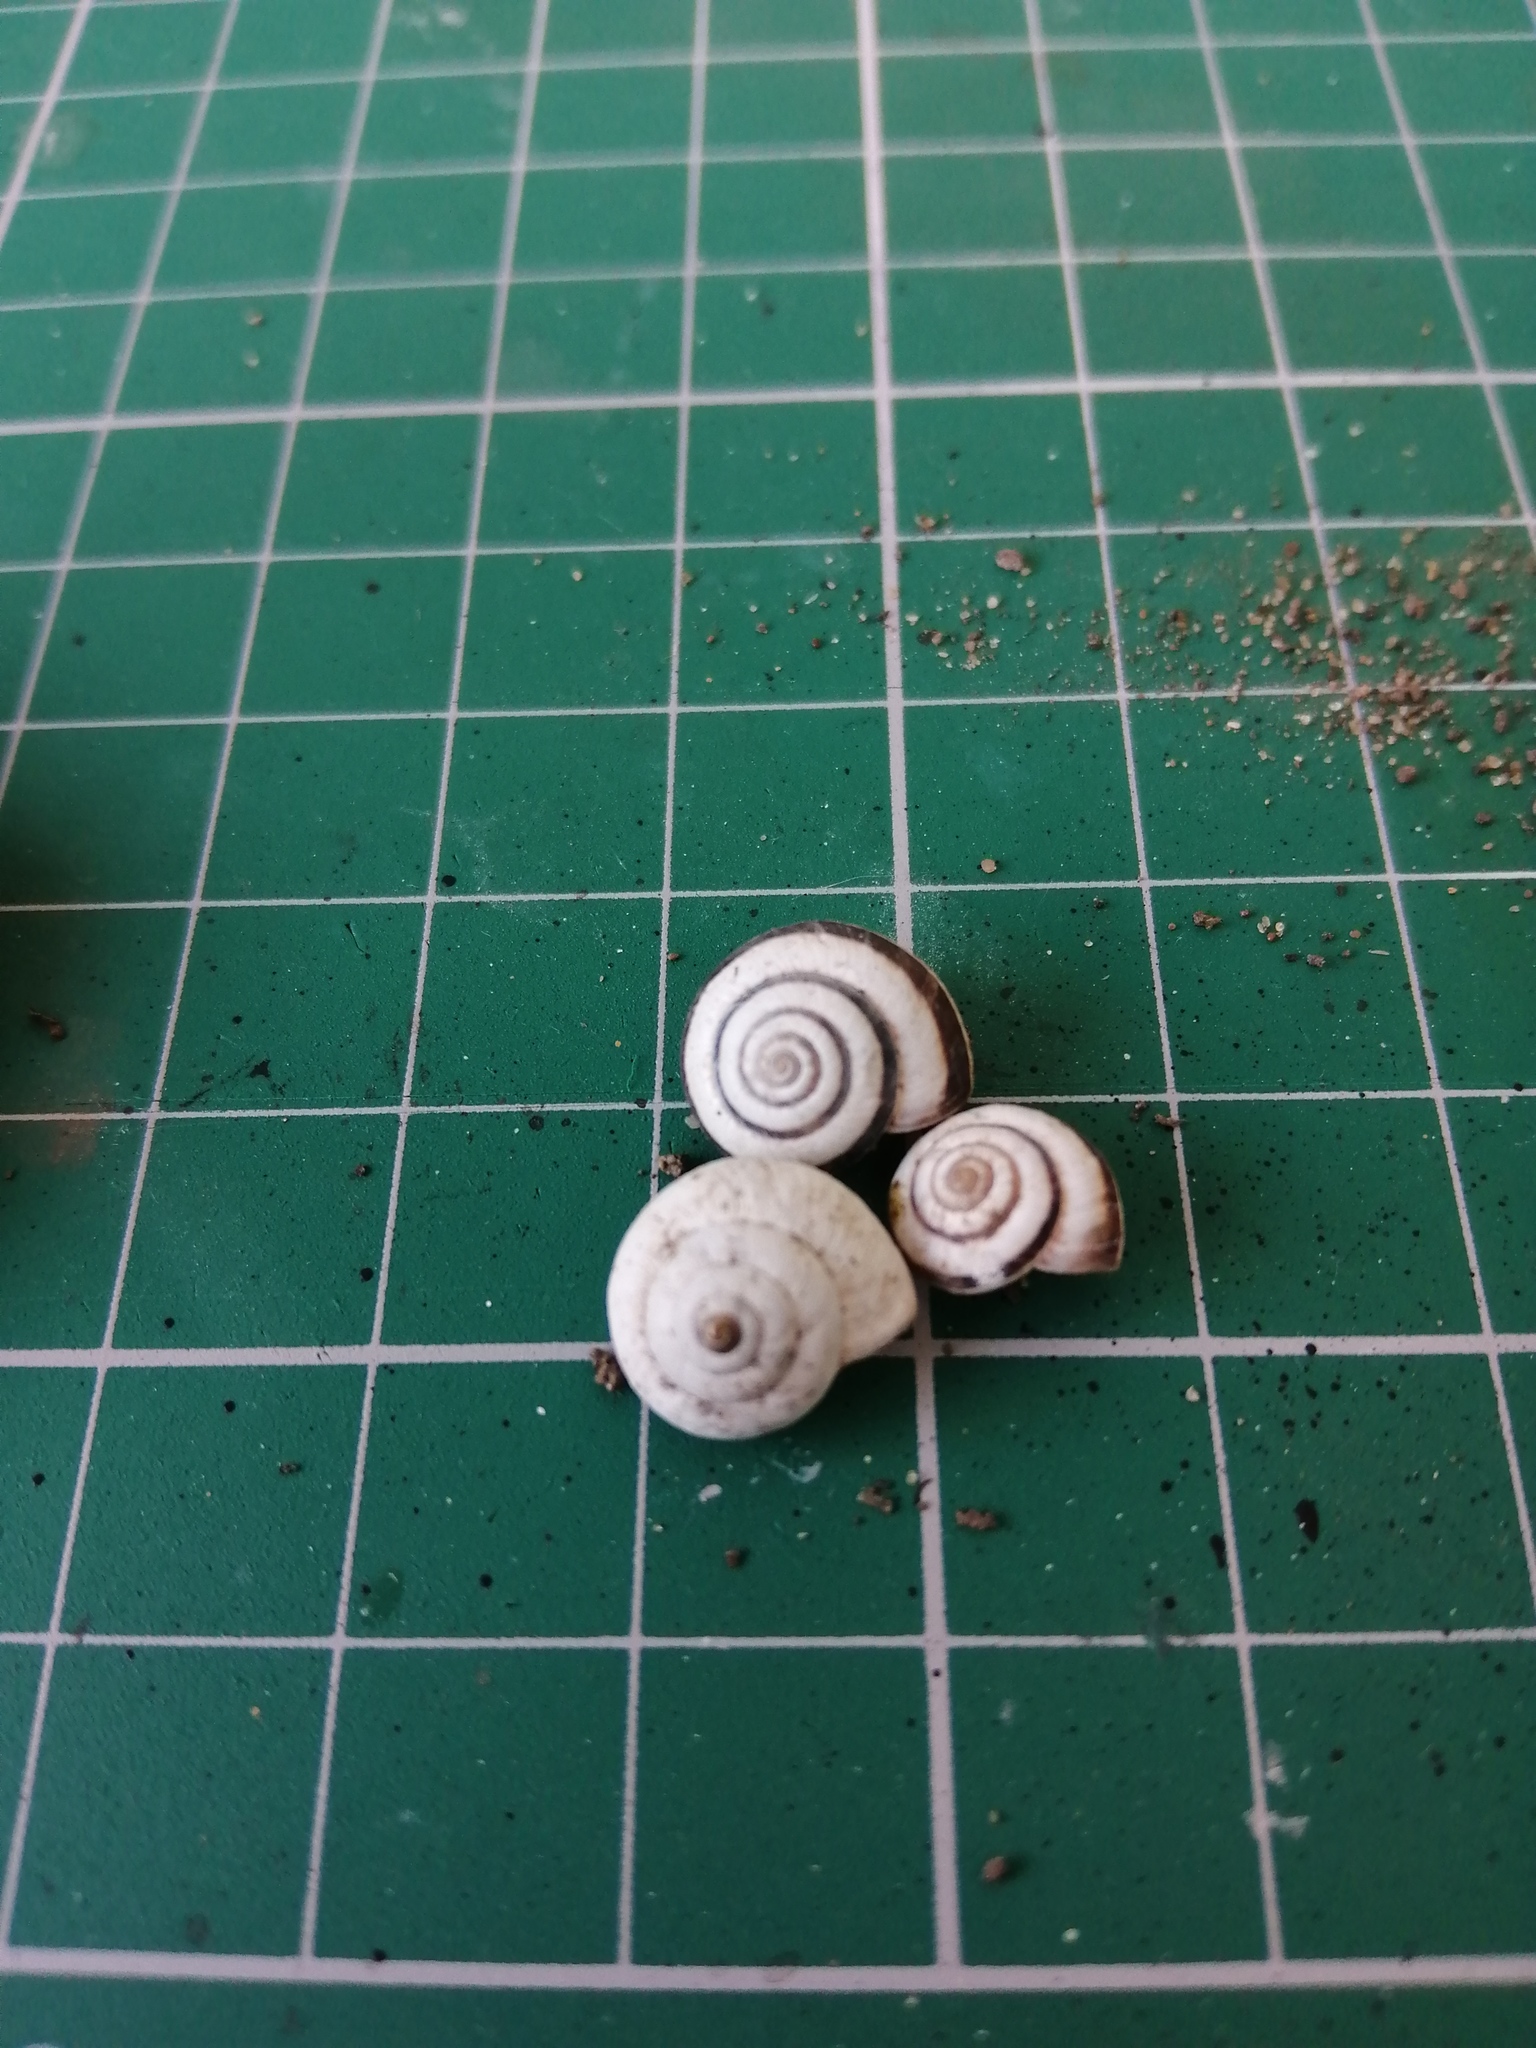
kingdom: Animalia
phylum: Mollusca
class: Gastropoda
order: Stylommatophora
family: Geomitridae
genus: Cernuella
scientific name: Cernuella virgata
